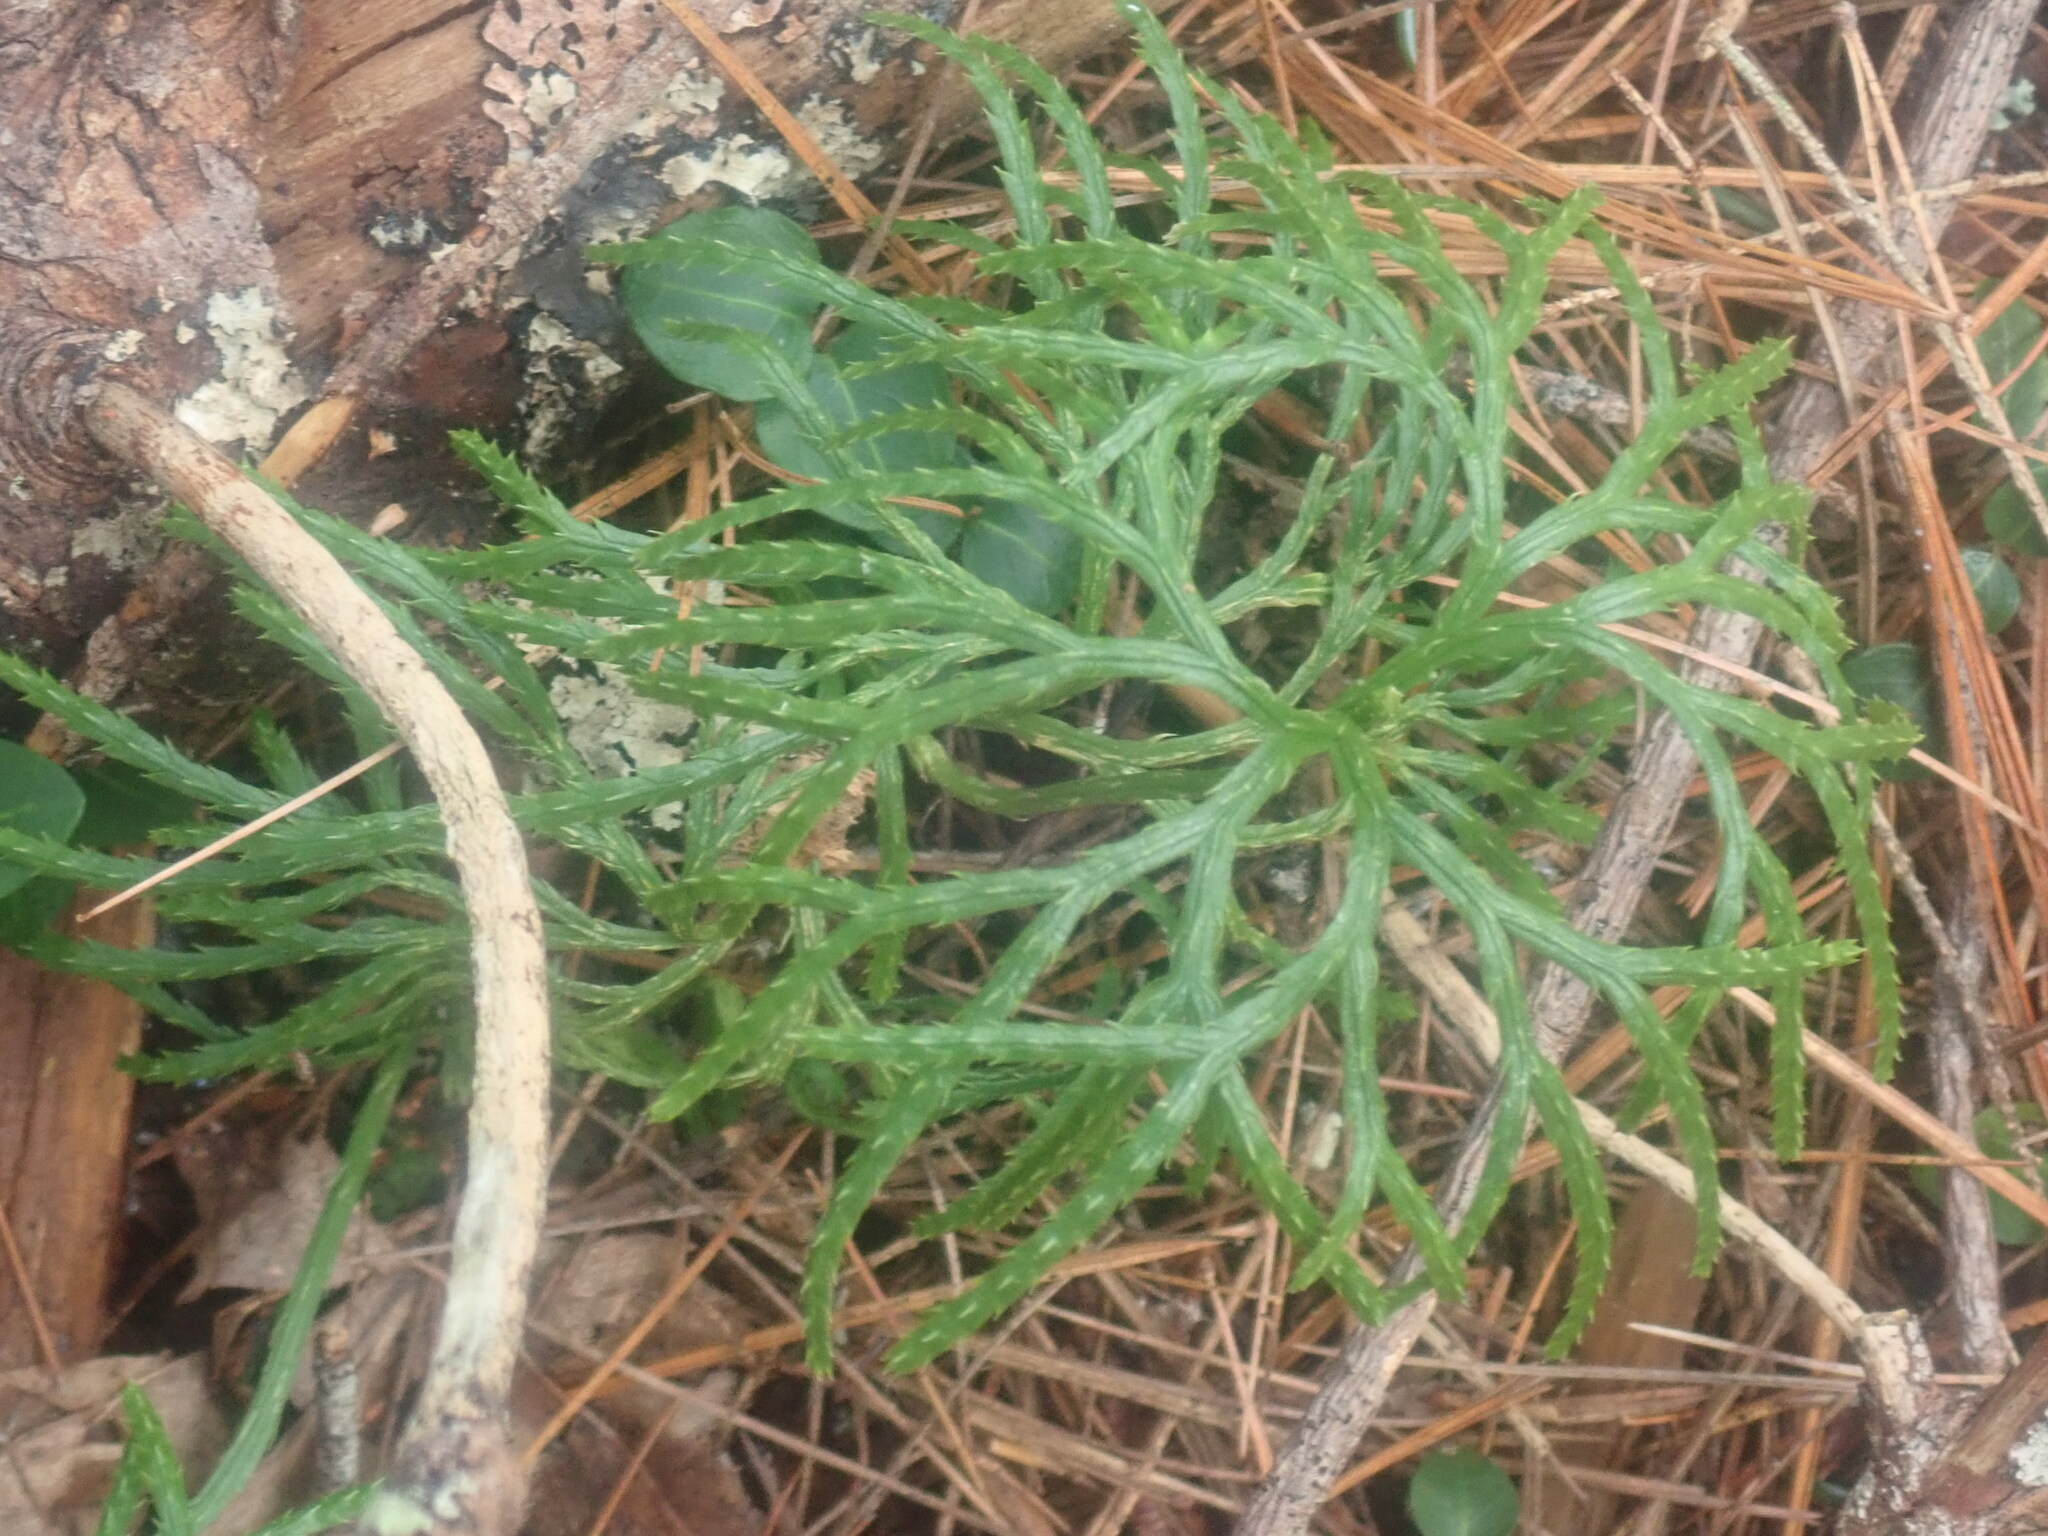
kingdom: Plantae
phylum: Tracheophyta
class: Lycopodiopsida
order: Lycopodiales
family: Lycopodiaceae
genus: Diphasiastrum
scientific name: Diphasiastrum digitatum
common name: Southern running-pine
